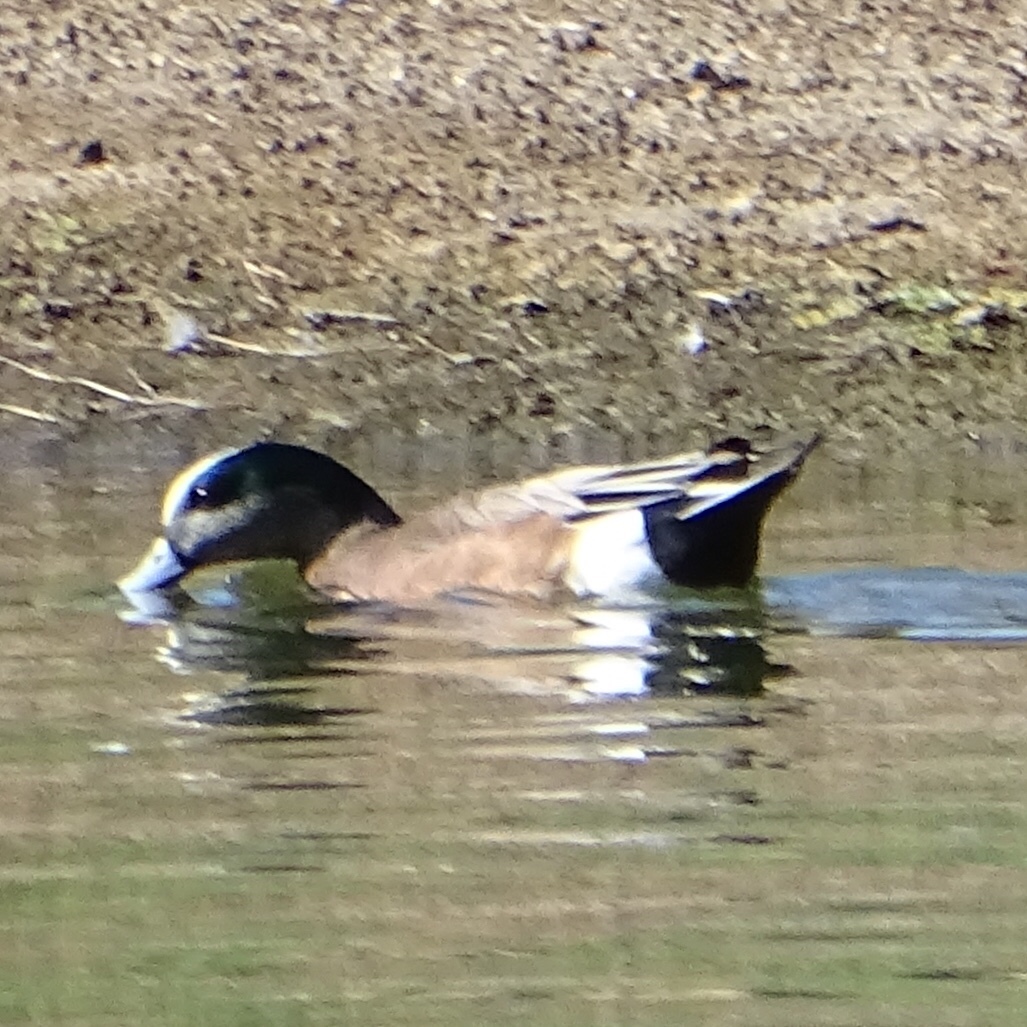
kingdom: Animalia
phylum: Chordata
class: Aves
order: Anseriformes
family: Anatidae
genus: Mareca
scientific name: Mareca americana
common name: American wigeon
